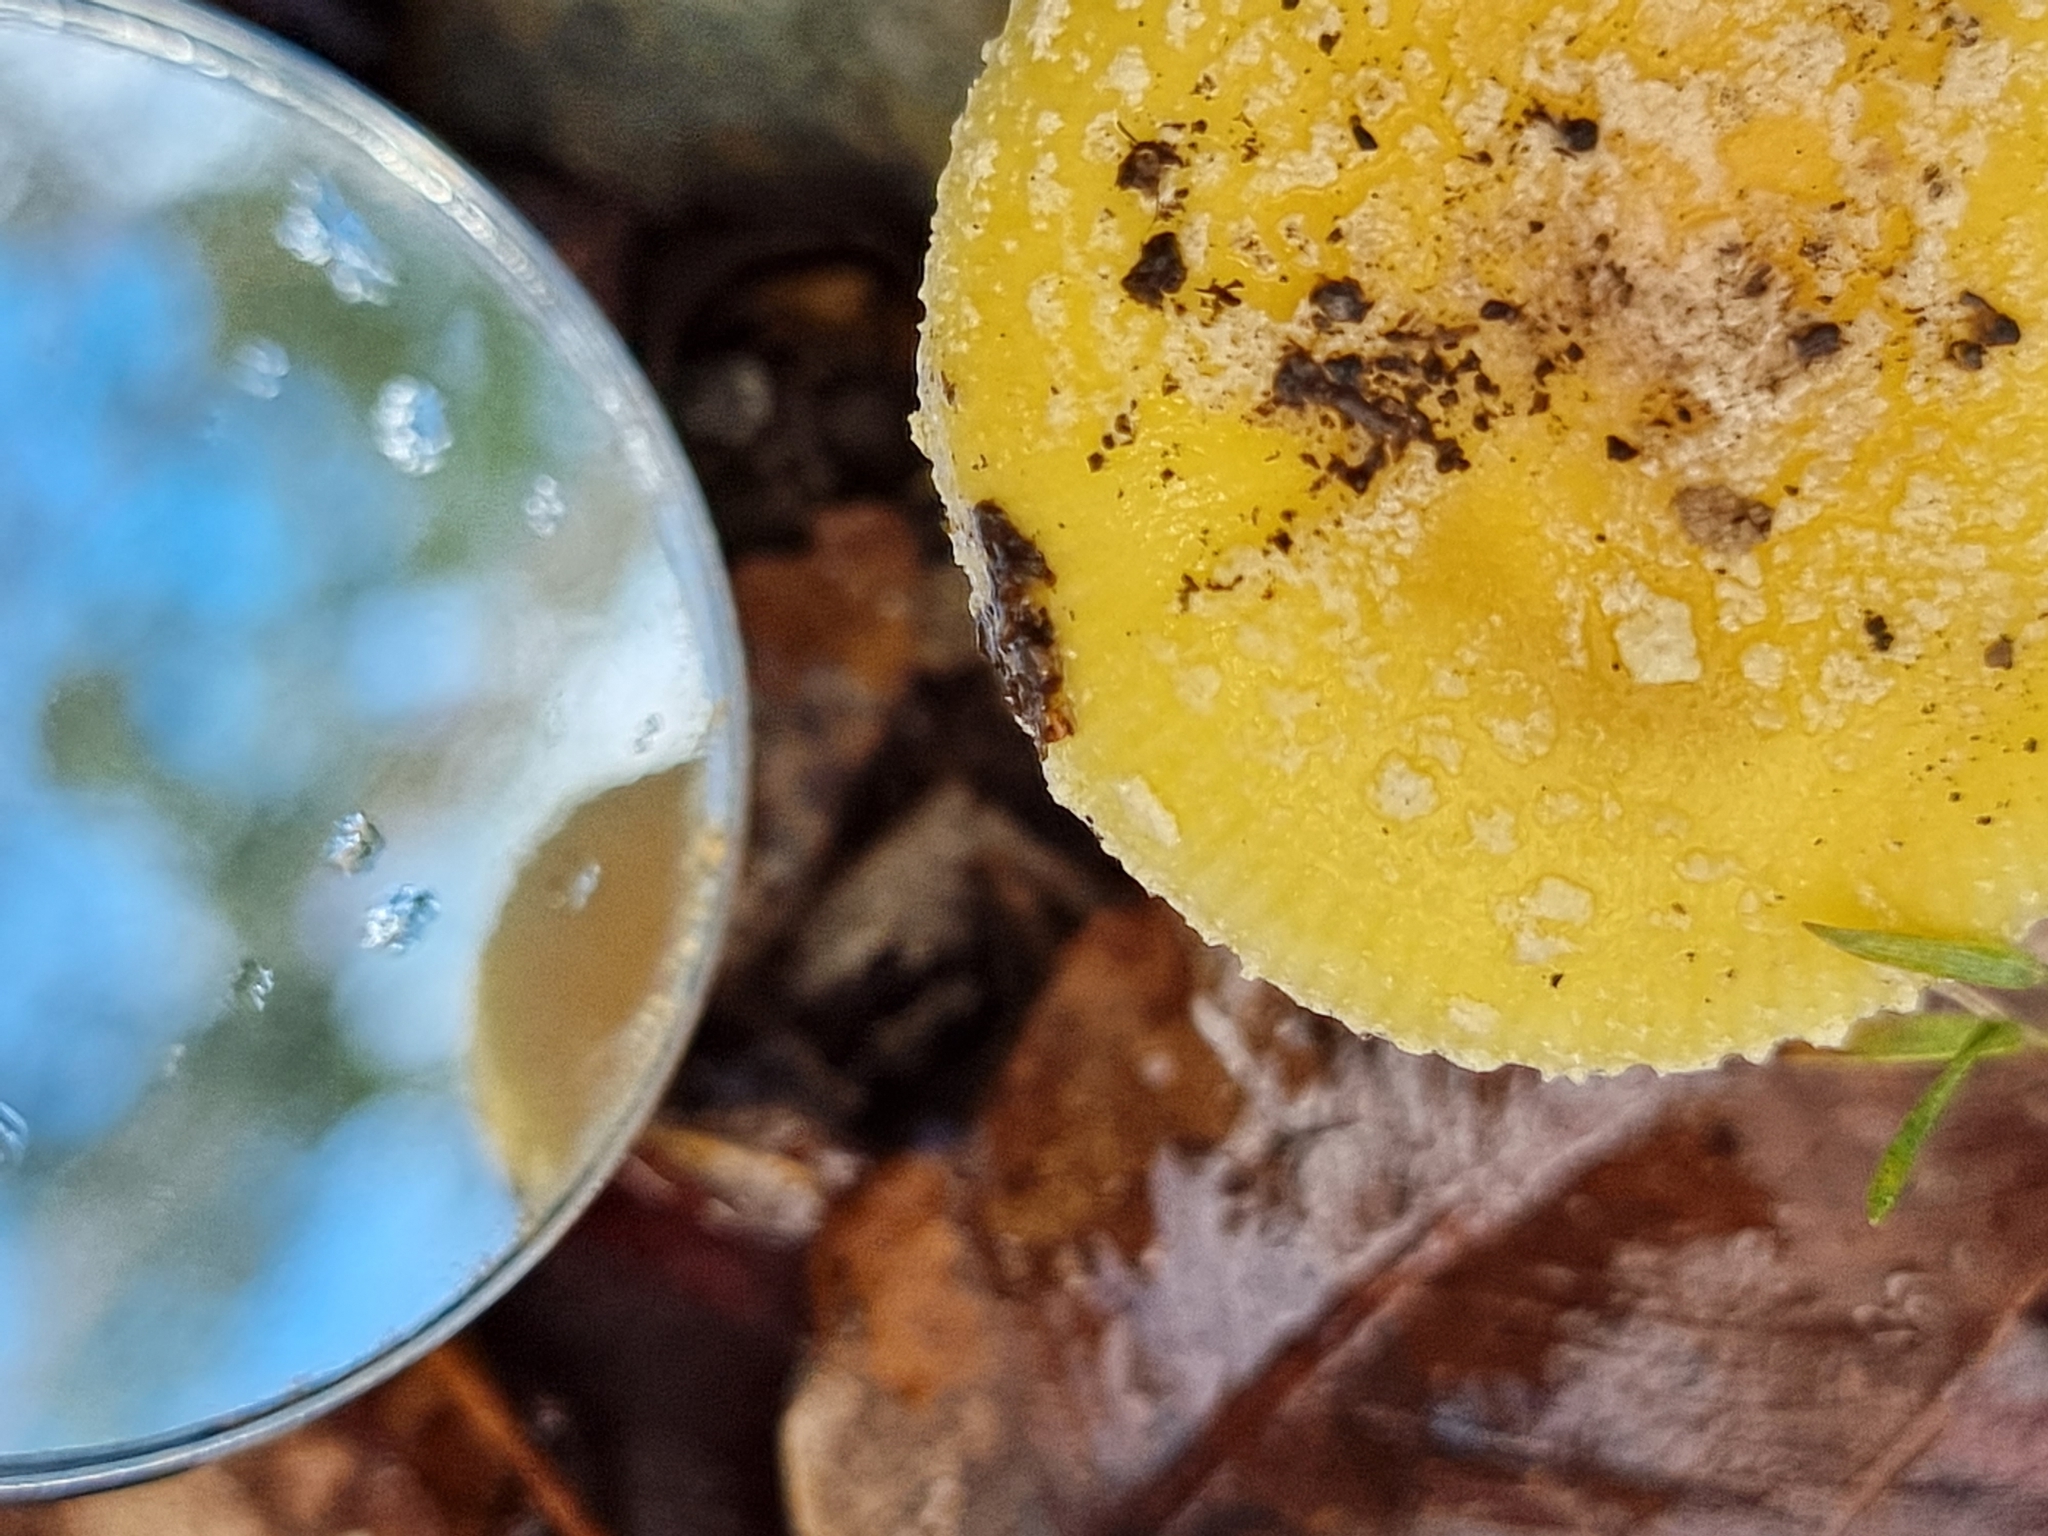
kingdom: Fungi
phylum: Basidiomycota
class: Agaricomycetes
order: Agaricales
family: Amanitaceae
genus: Amanita
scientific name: Amanita austropulchella
